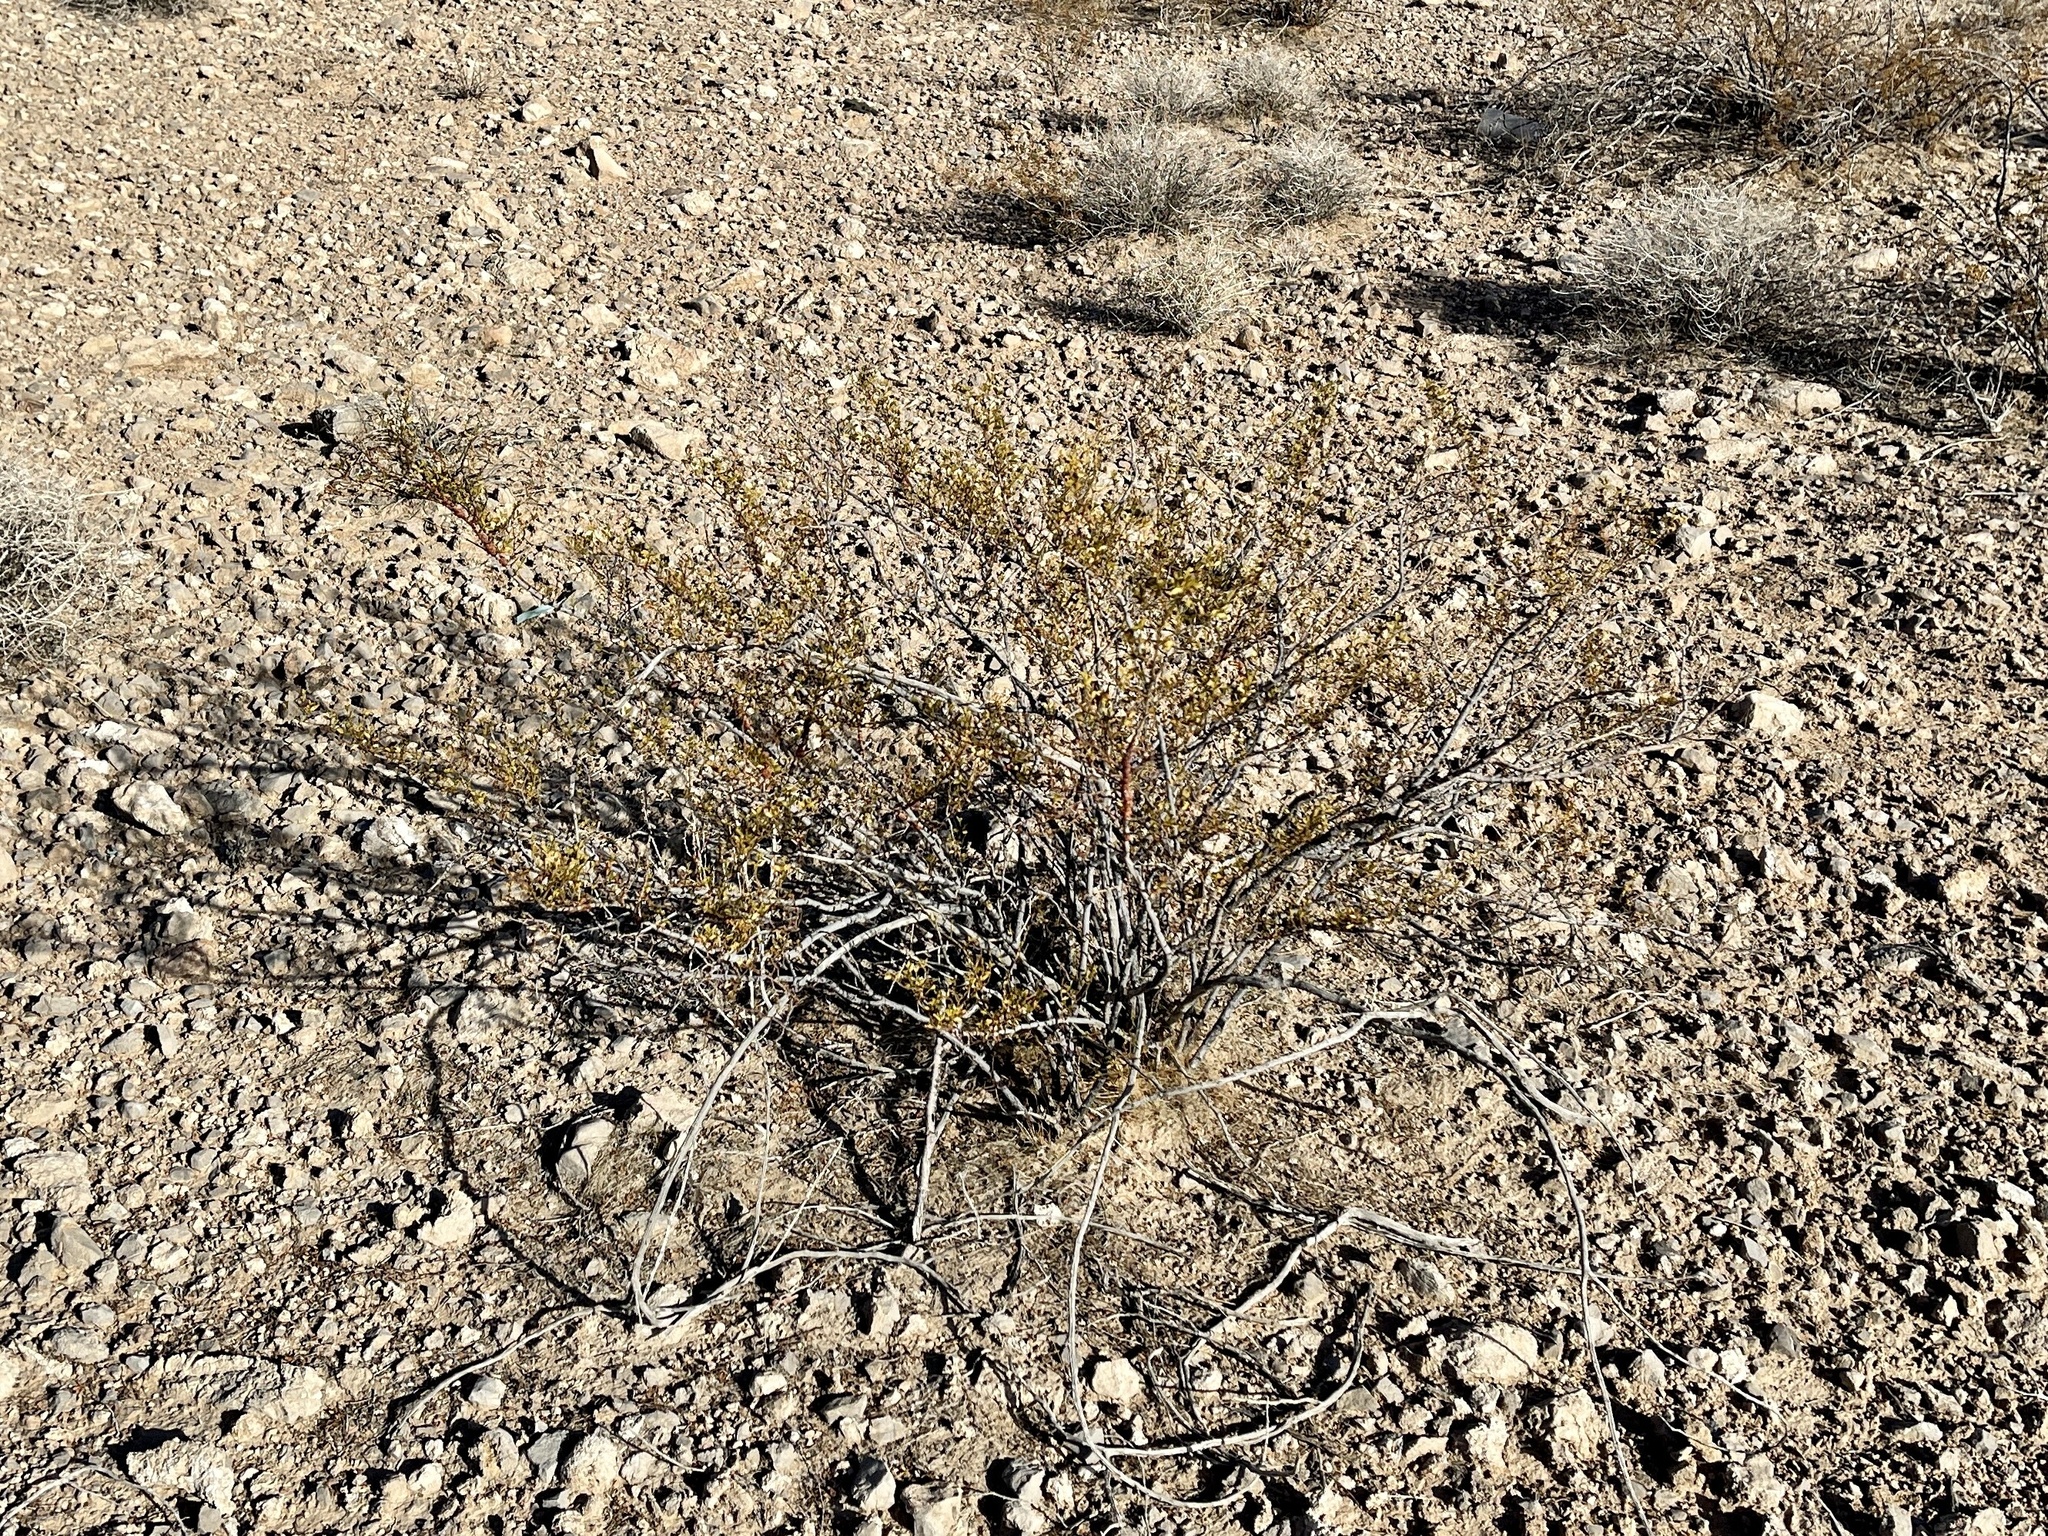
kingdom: Plantae
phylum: Tracheophyta
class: Magnoliopsida
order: Zygophyllales
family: Zygophyllaceae
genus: Larrea
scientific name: Larrea tridentata
